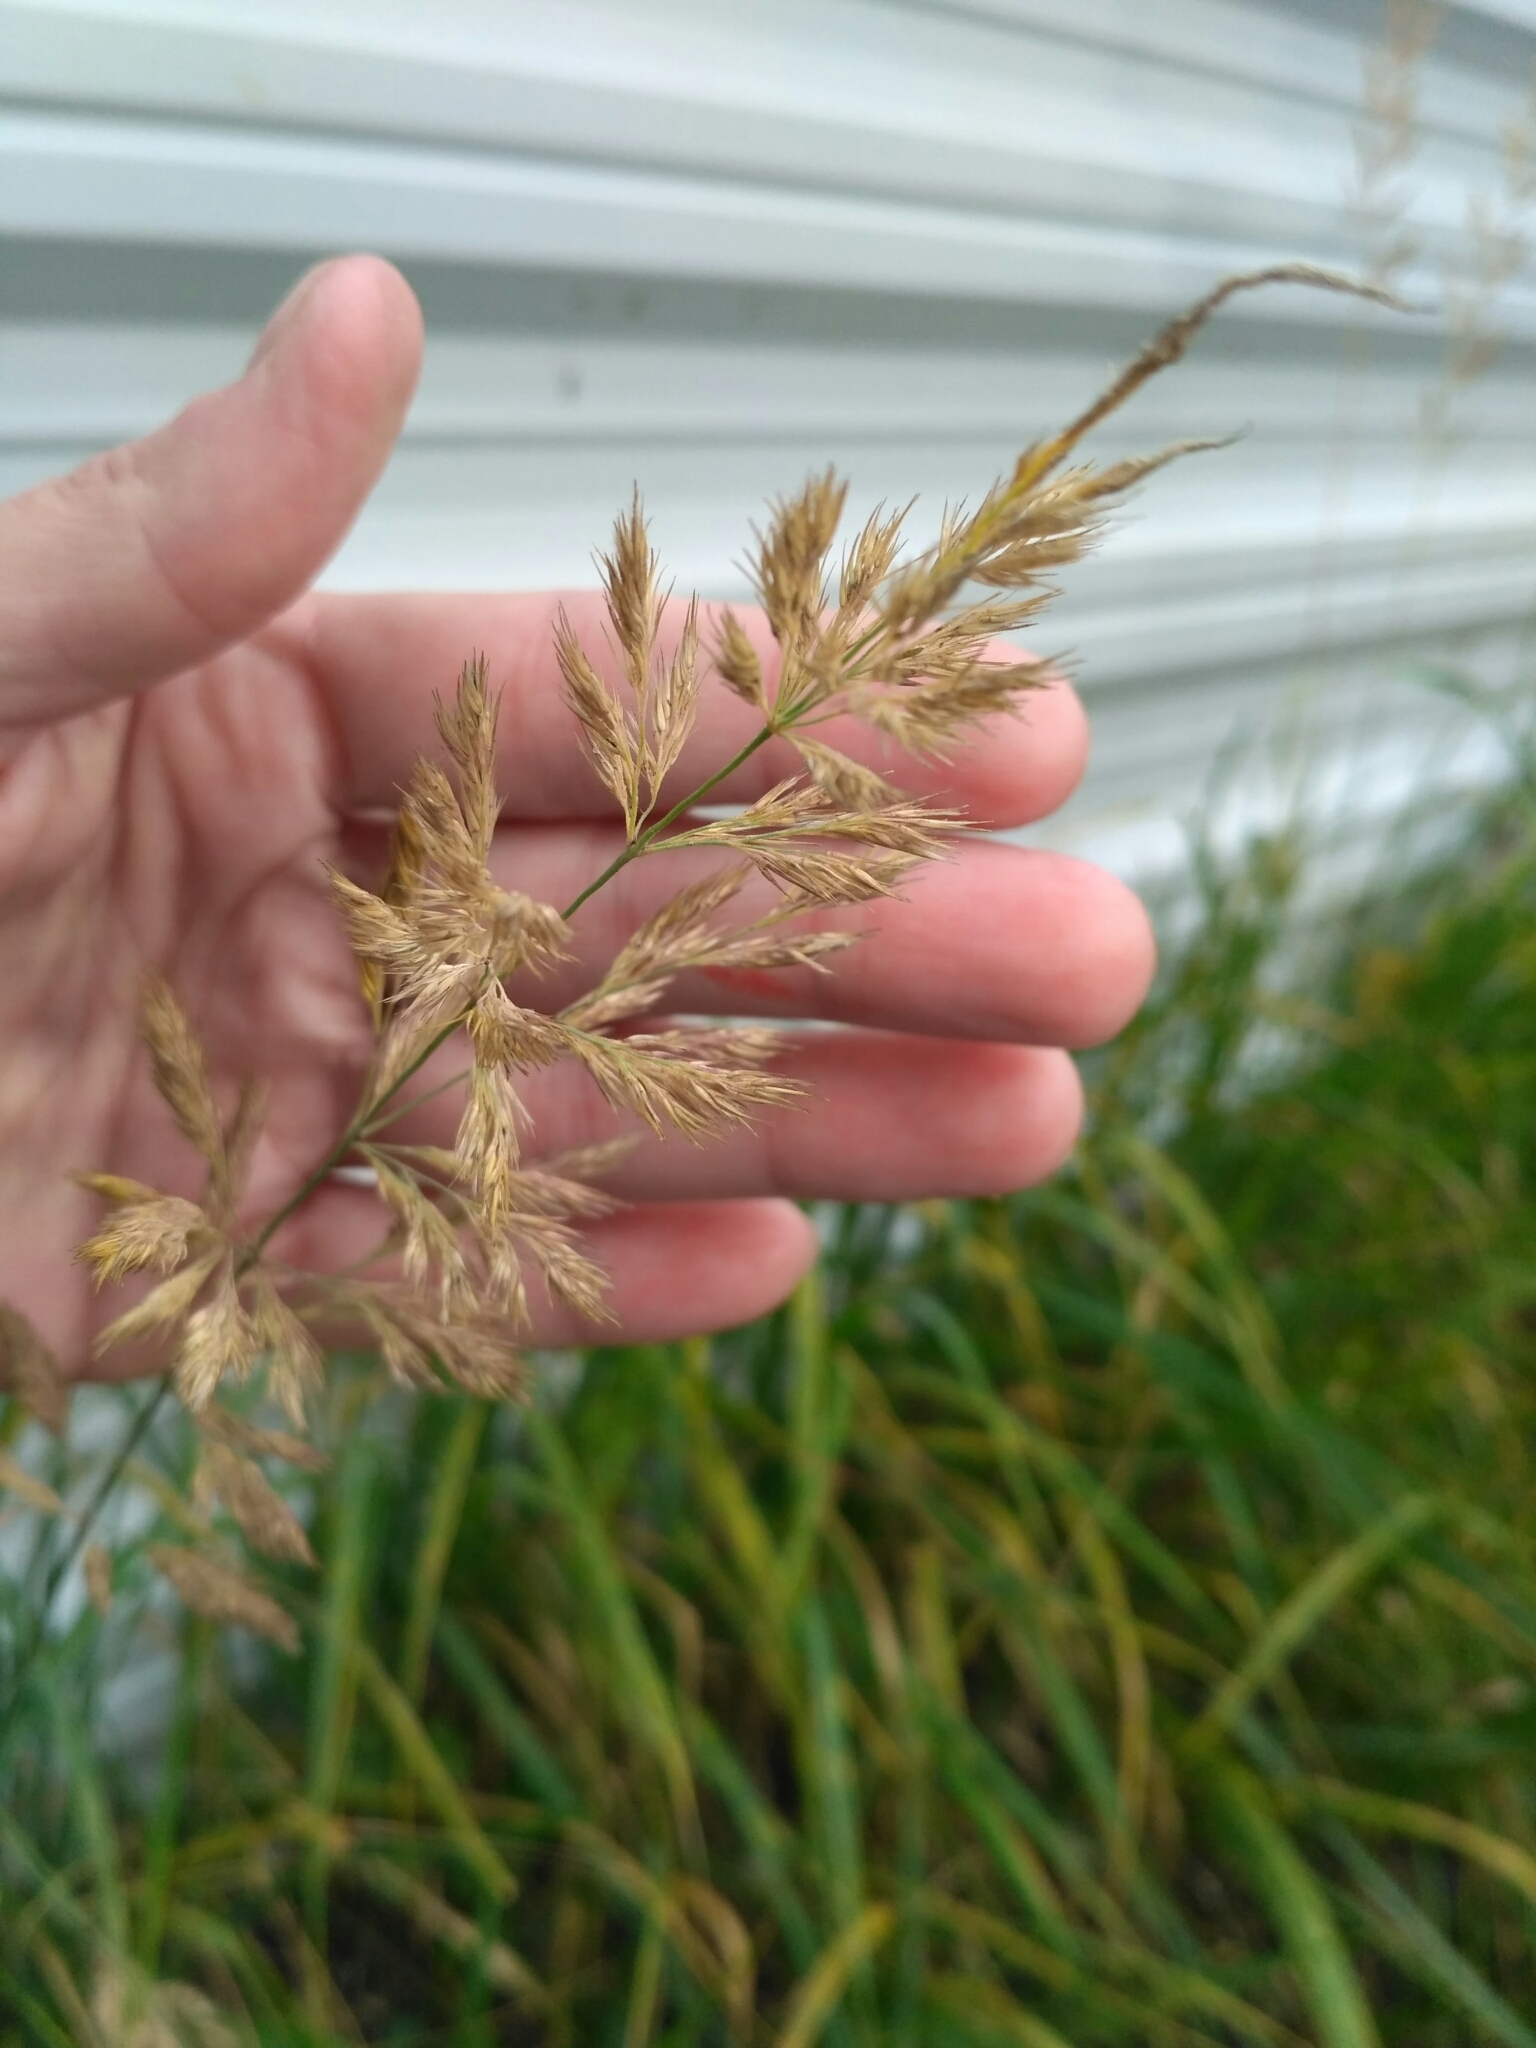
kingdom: Plantae
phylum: Tracheophyta
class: Liliopsida
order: Poales
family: Poaceae
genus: Calamagrostis
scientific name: Calamagrostis epigejos
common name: Wood small-reed
